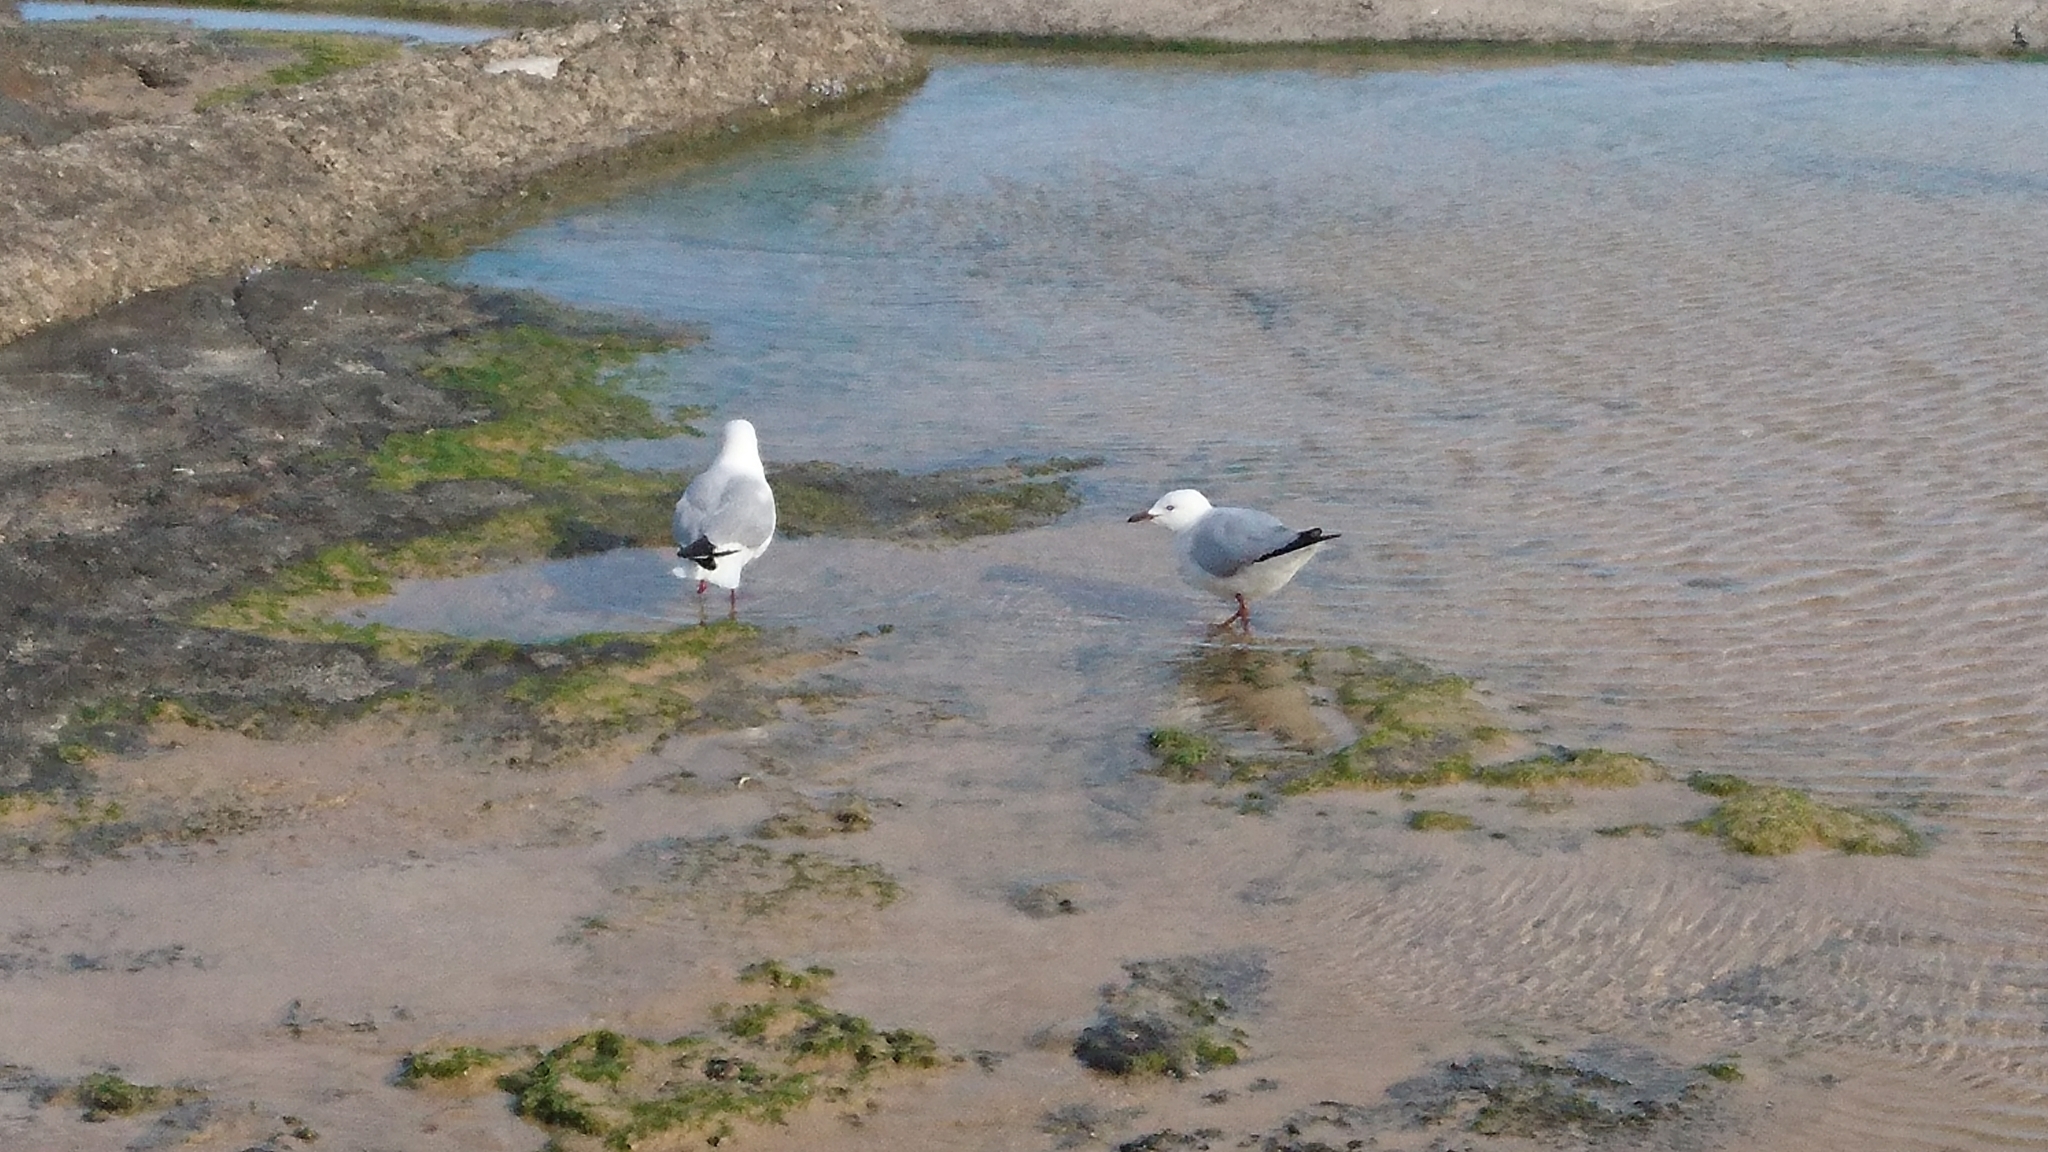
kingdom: Animalia
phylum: Chordata
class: Aves
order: Charadriiformes
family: Laridae
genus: Chroicocephalus
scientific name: Chroicocephalus novaehollandiae
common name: Silver gull
